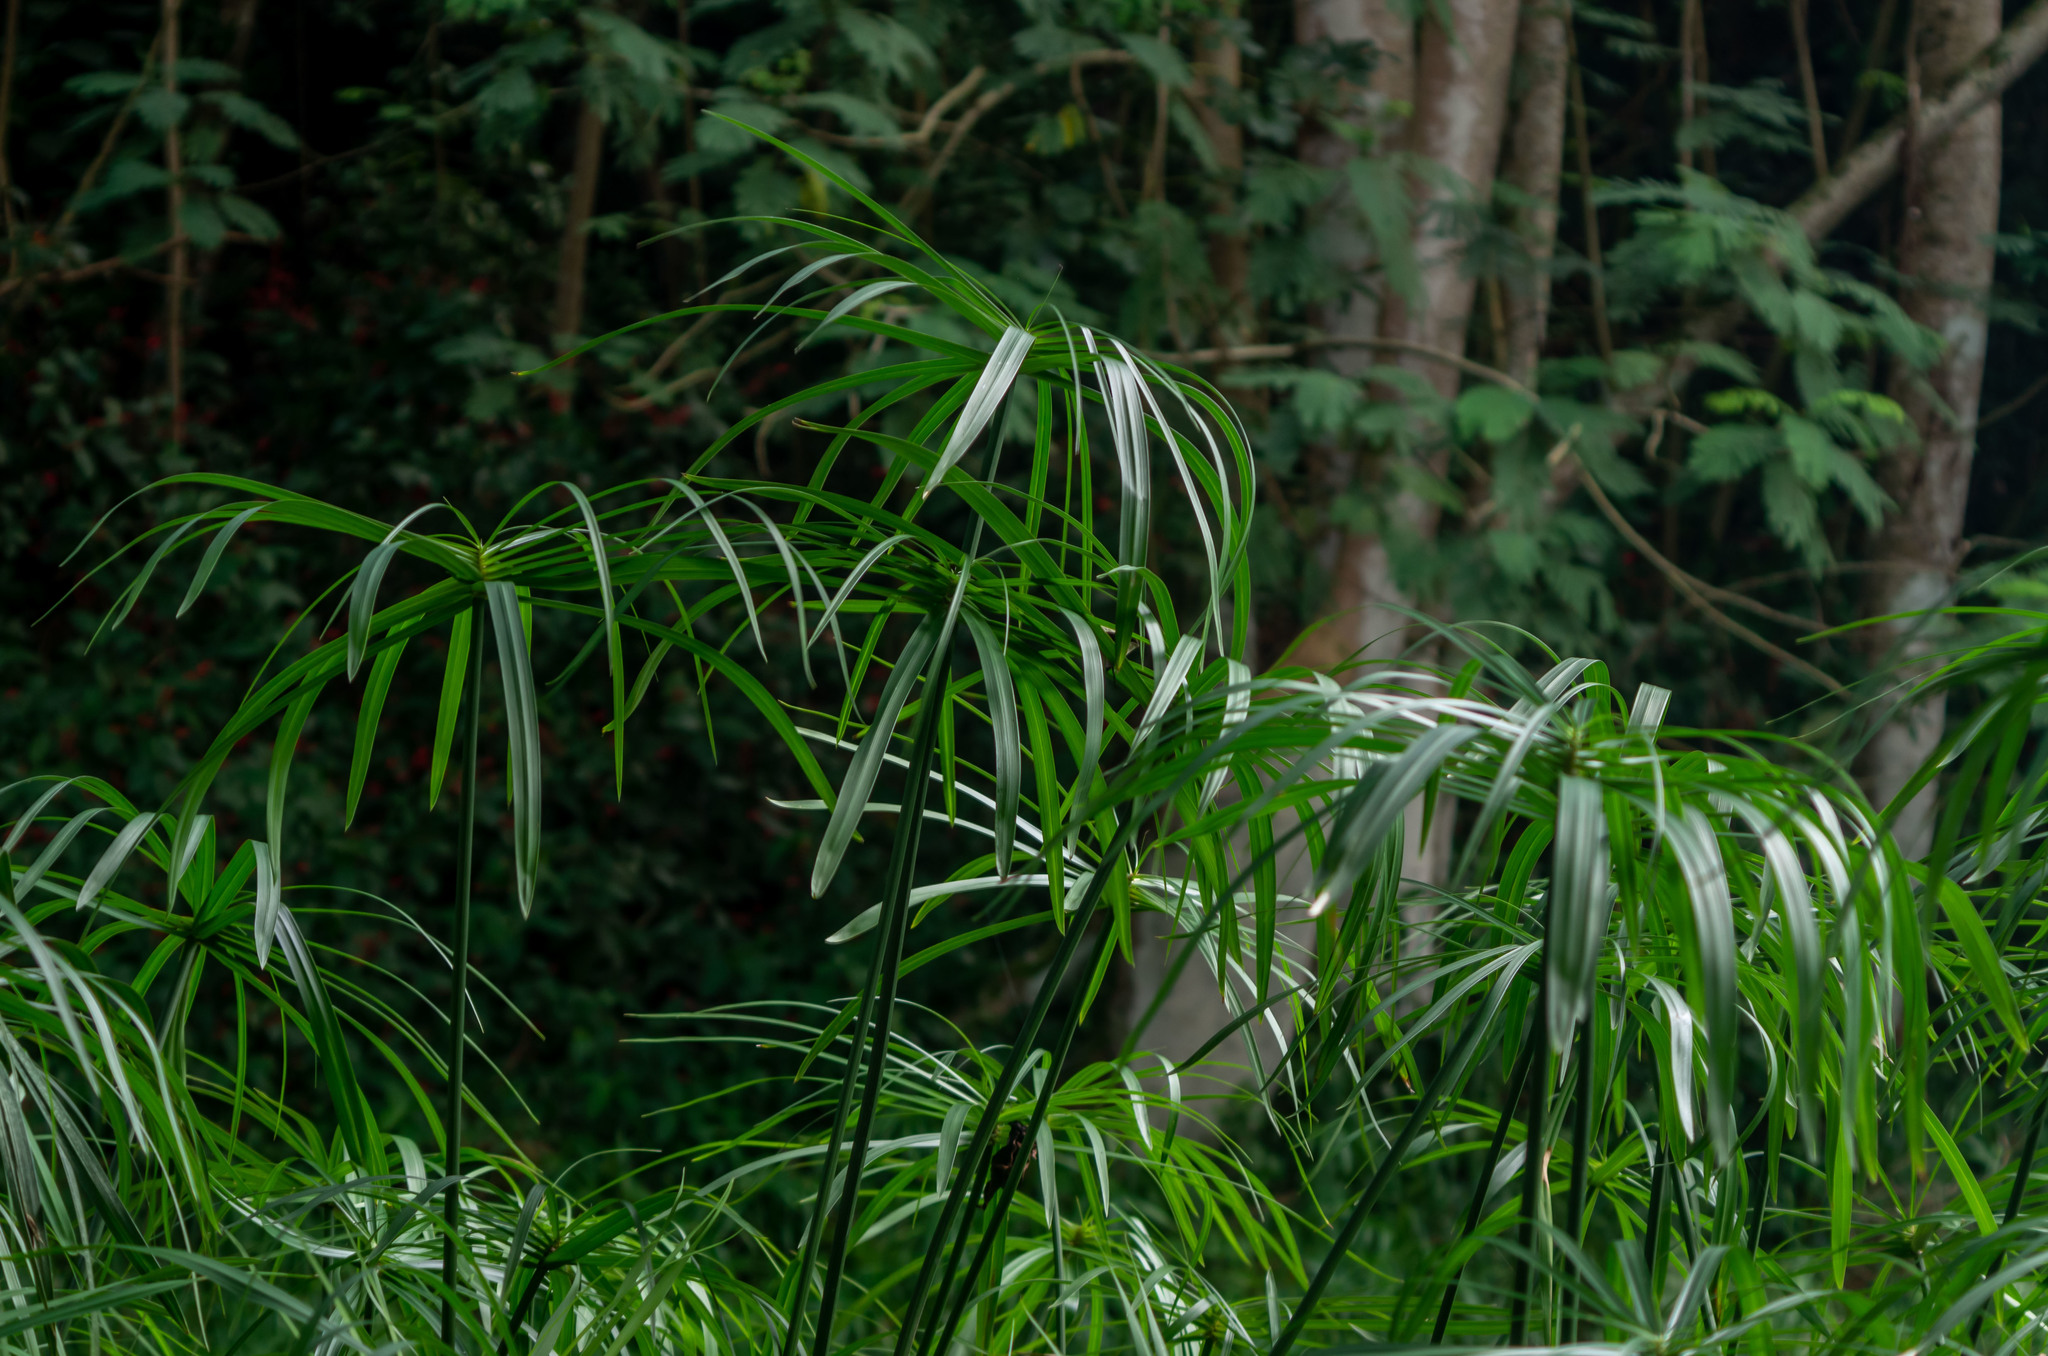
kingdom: Plantae
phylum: Tracheophyta
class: Liliopsida
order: Poales
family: Cyperaceae
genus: Cyperus
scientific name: Cyperus alternifolius
